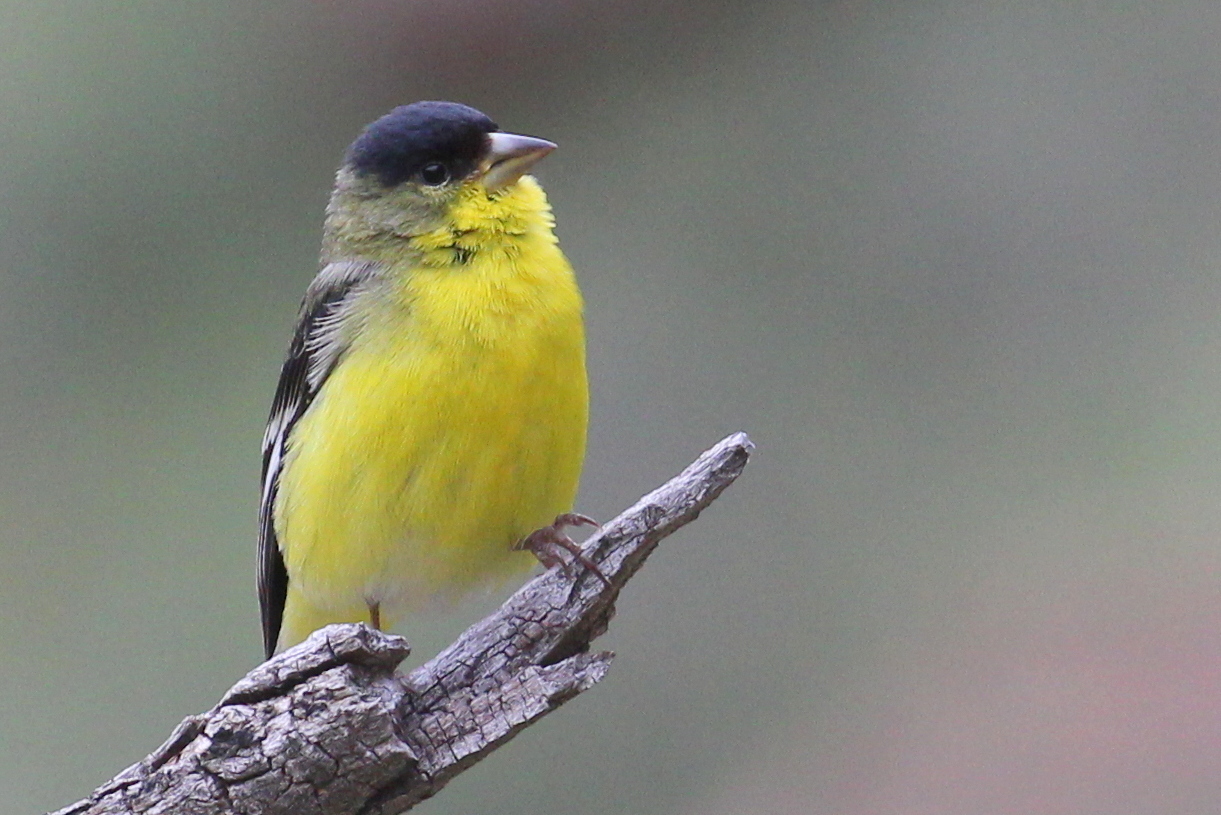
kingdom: Animalia
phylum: Chordata
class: Aves
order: Passeriformes
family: Fringillidae
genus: Spinus
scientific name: Spinus psaltria
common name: Lesser goldfinch
